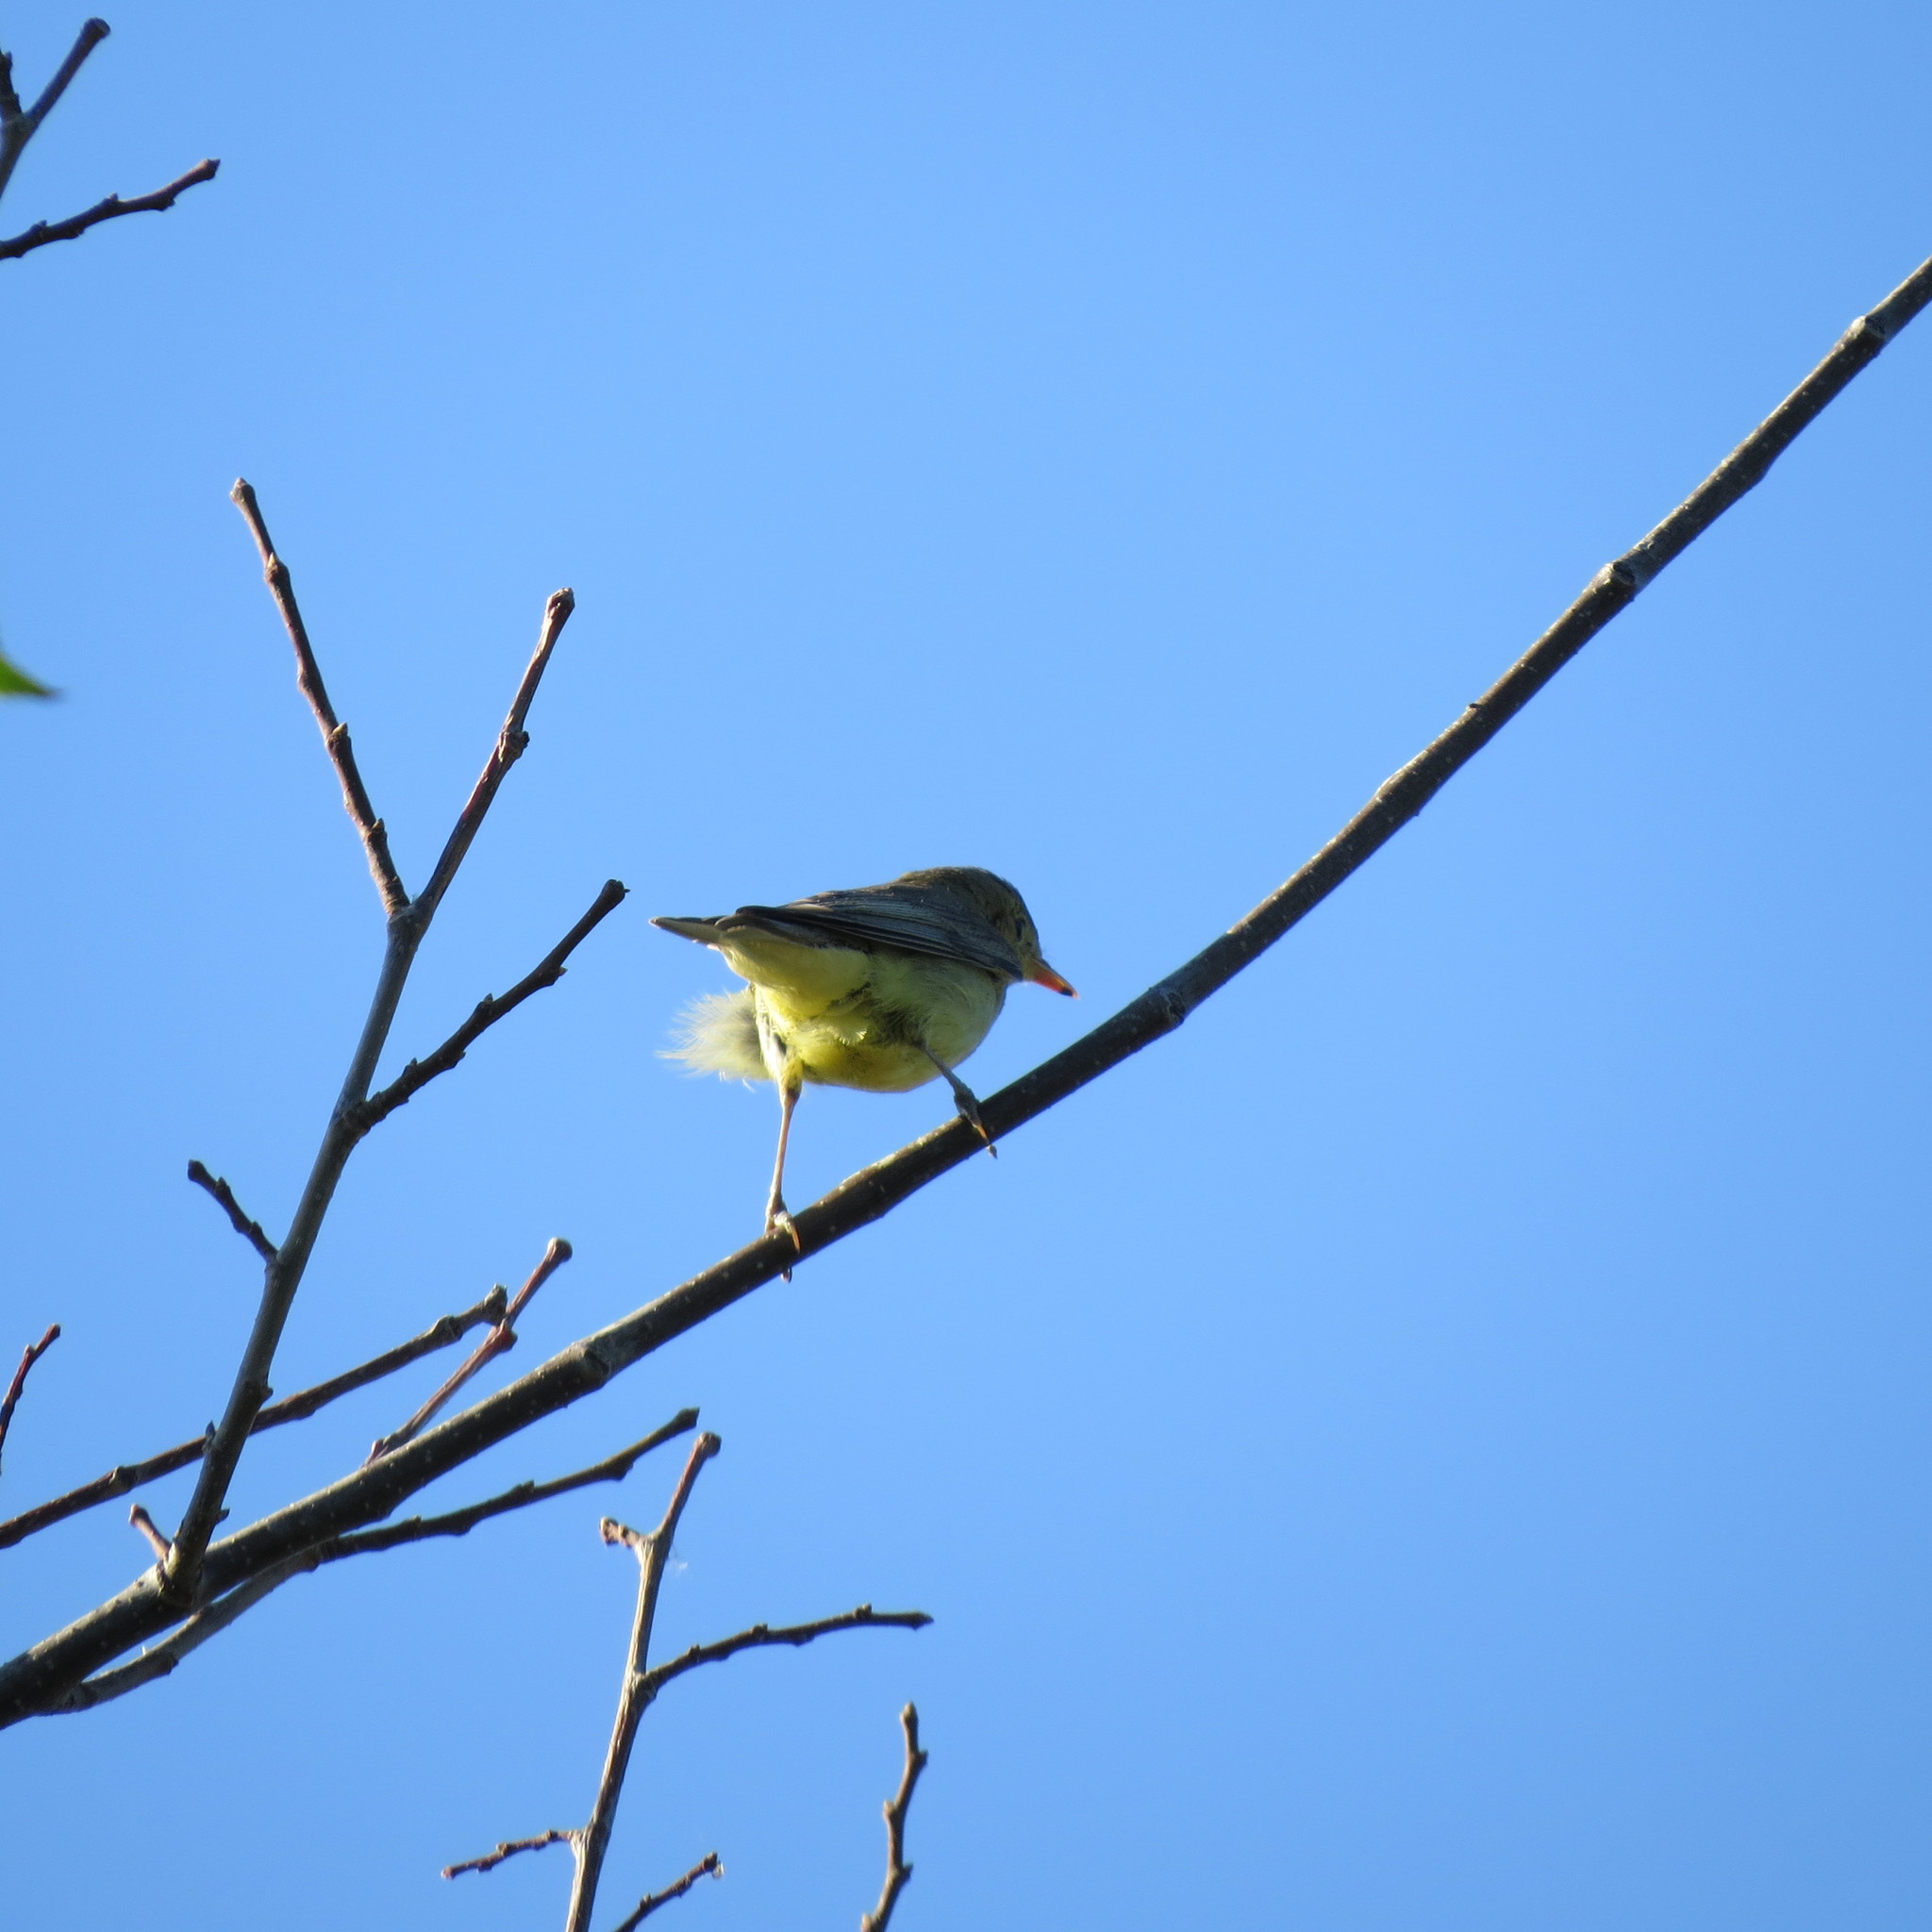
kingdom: Animalia
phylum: Chordata
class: Aves
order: Passeriformes
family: Acrocephalidae
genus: Hippolais
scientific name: Hippolais icterina
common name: Icterine warbler
